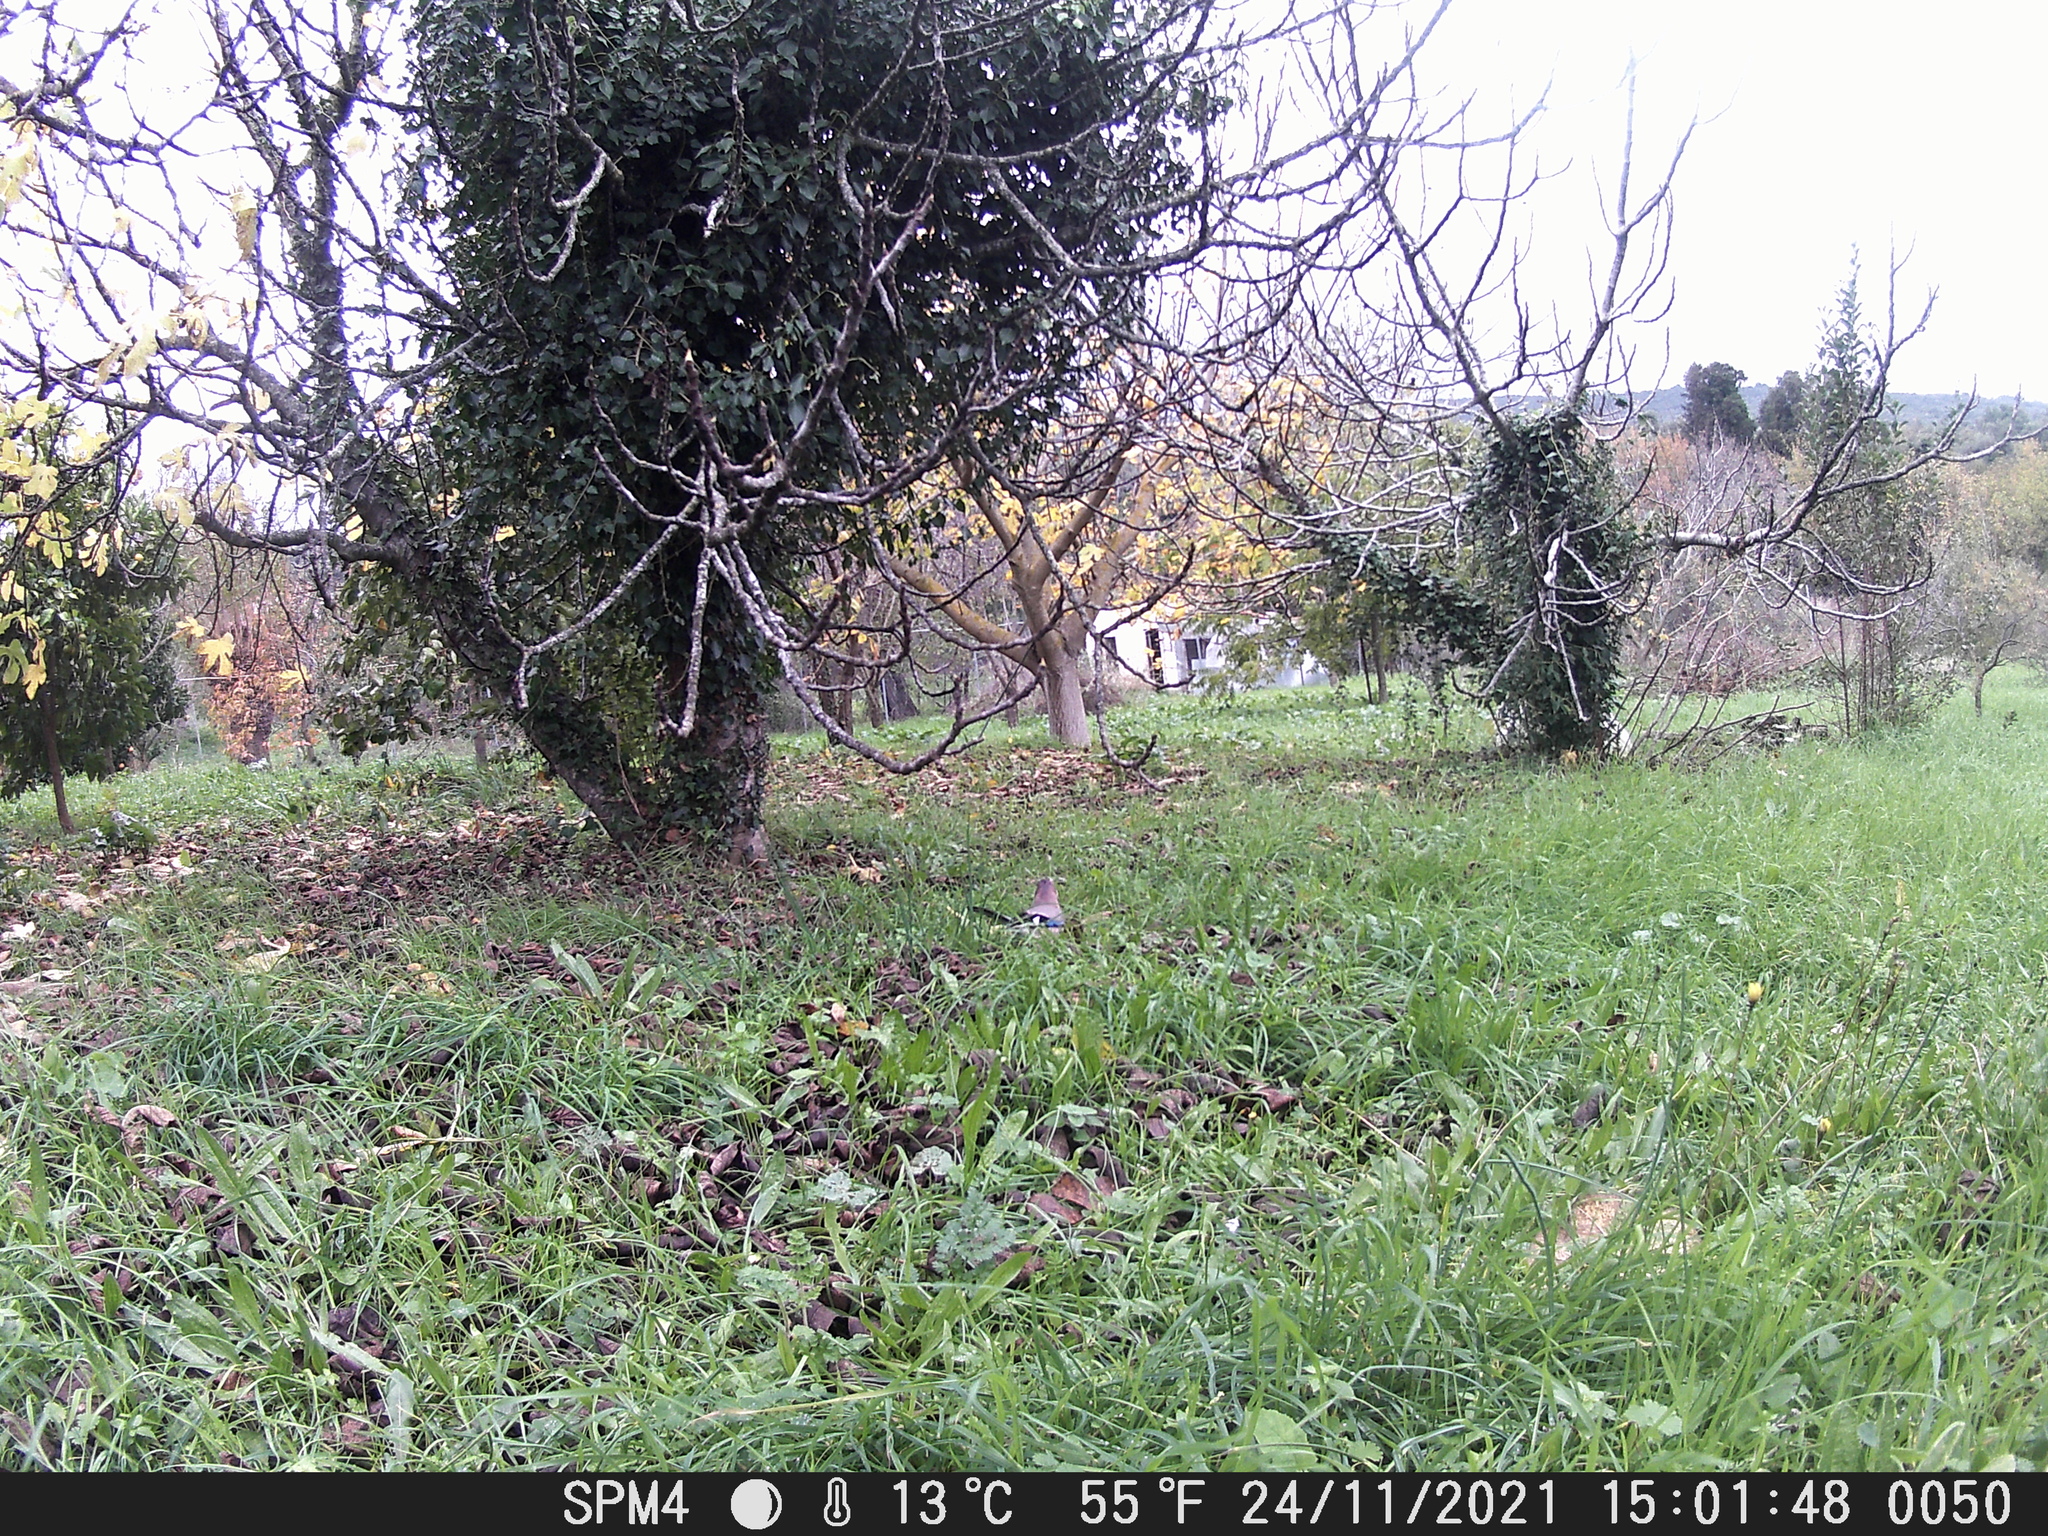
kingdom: Animalia
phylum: Chordata
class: Aves
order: Passeriformes
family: Corvidae
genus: Garrulus
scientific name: Garrulus glandarius
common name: Eurasian jay
